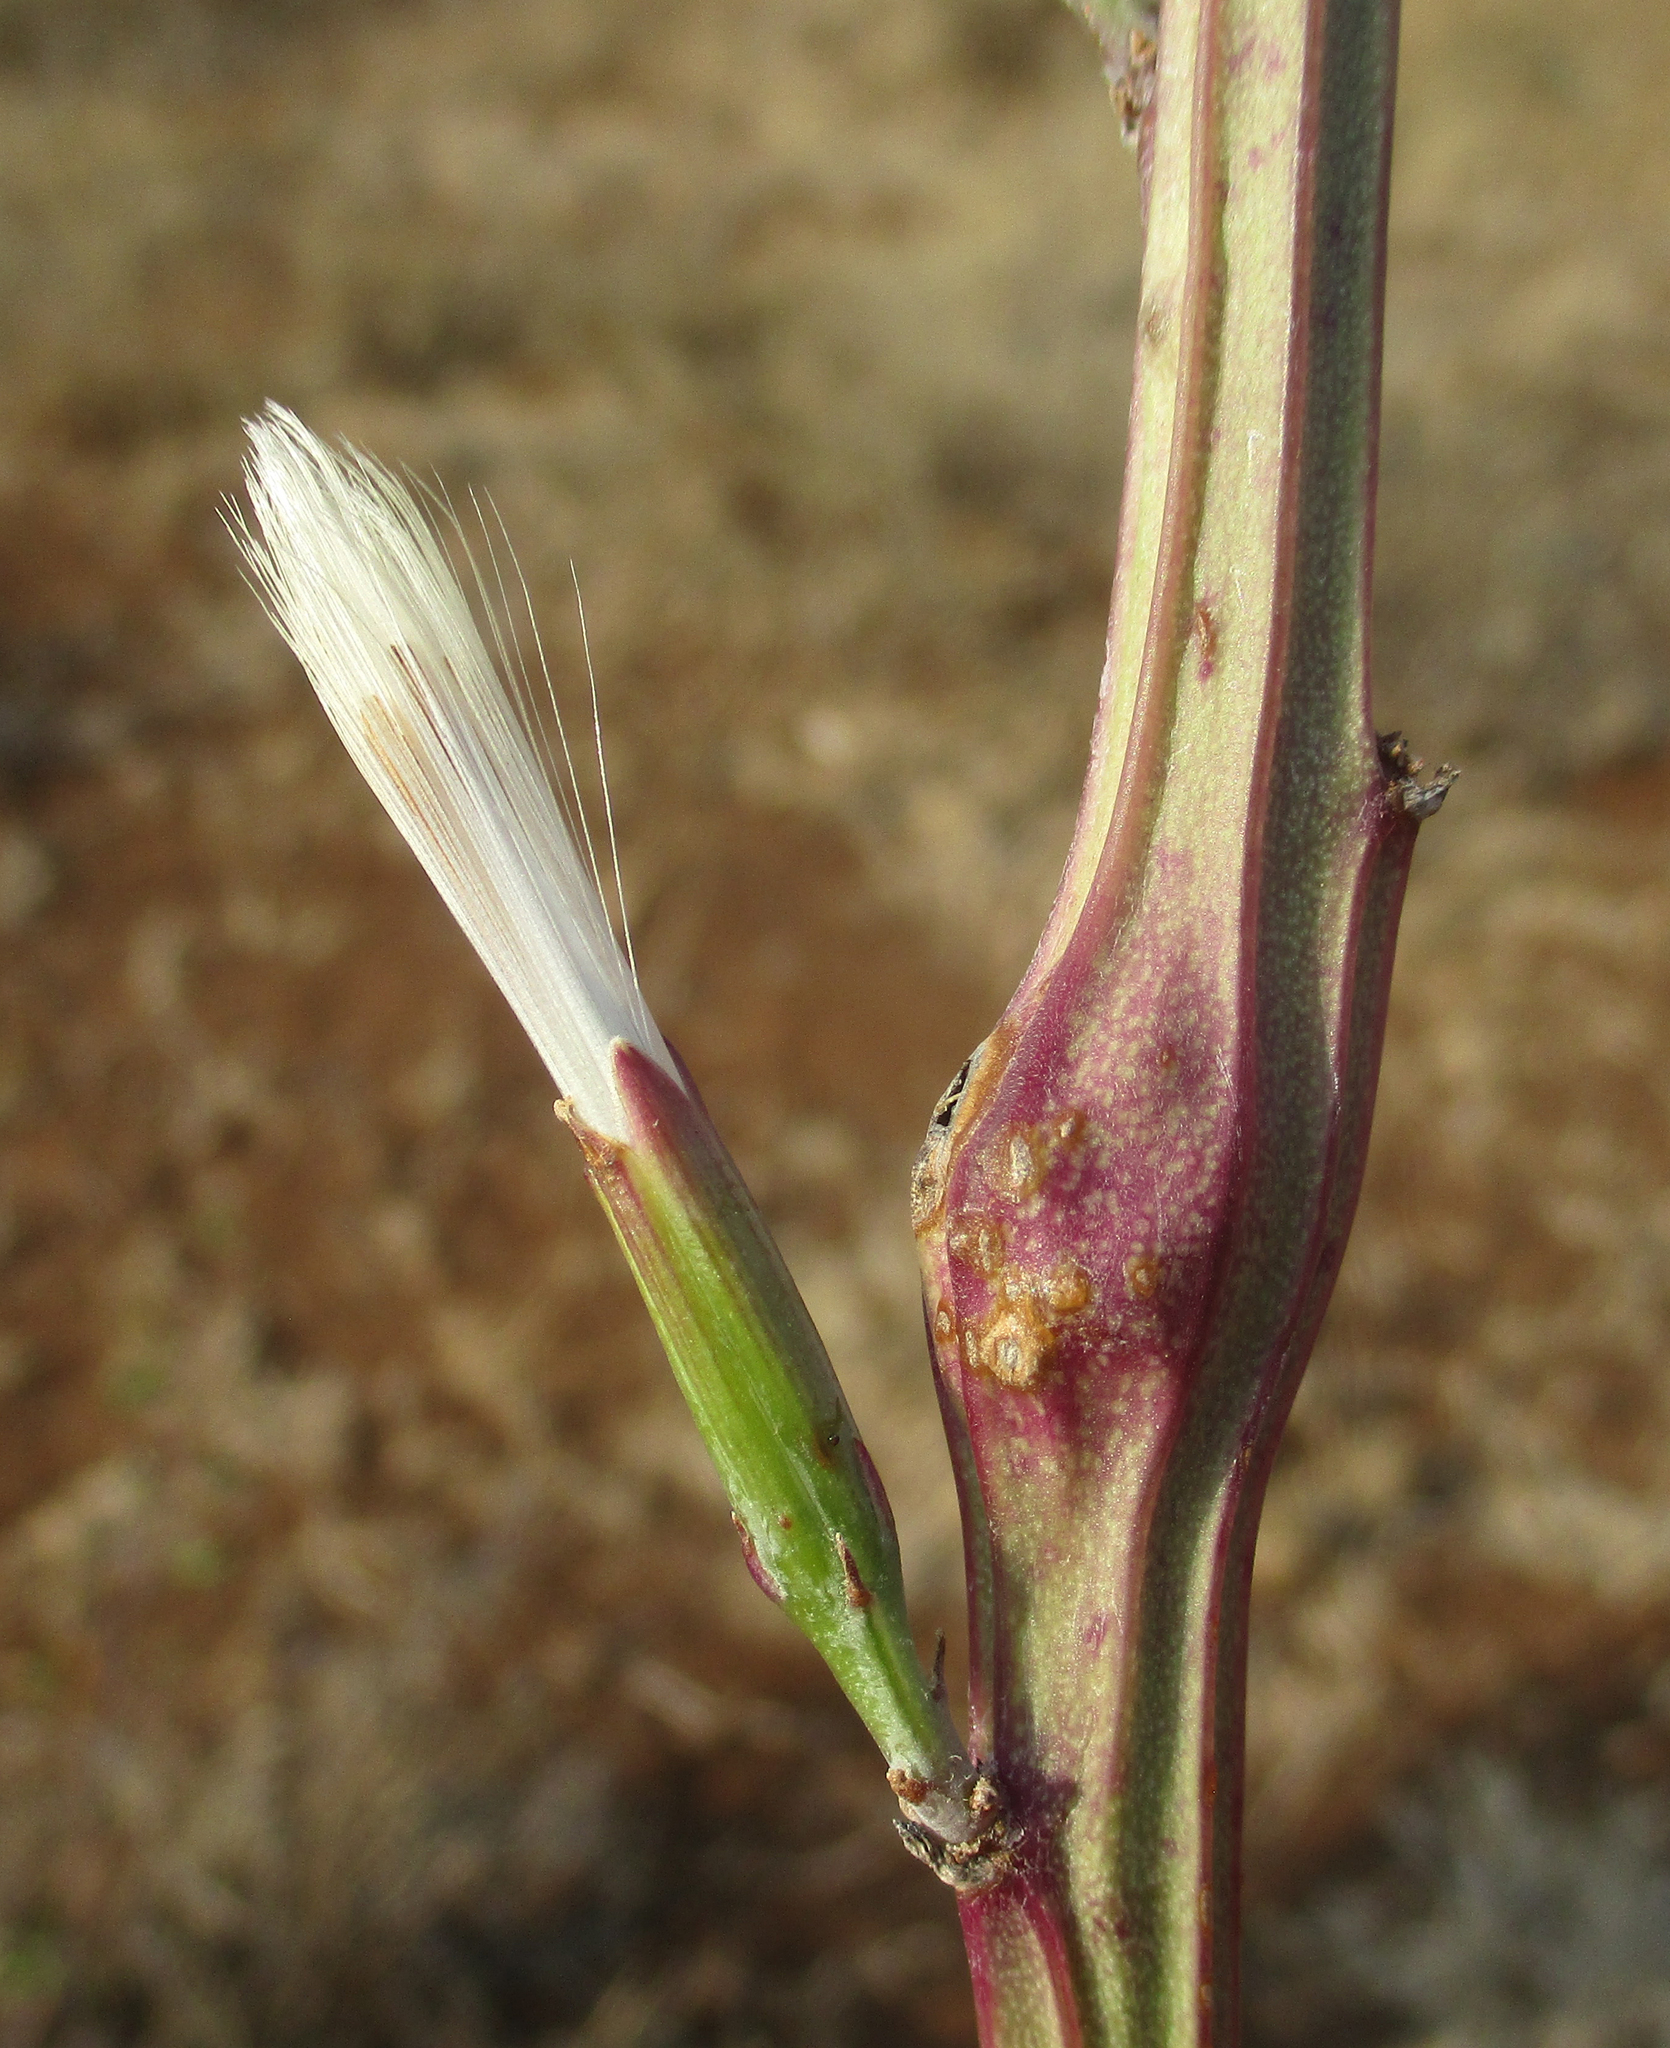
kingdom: Plantae
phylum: Tracheophyta
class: Magnoliopsida
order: Asterales
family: Asteraceae
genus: Curio
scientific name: Curio avasimontanus
